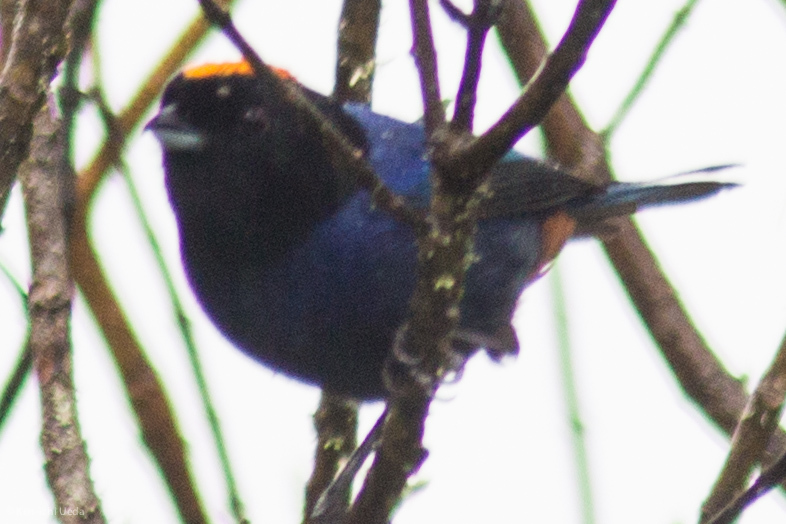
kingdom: Animalia
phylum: Chordata
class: Aves
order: Passeriformes
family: Thraupidae
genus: Iridosornis
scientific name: Iridosornis rufivertex
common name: Golden-crowned tanager
